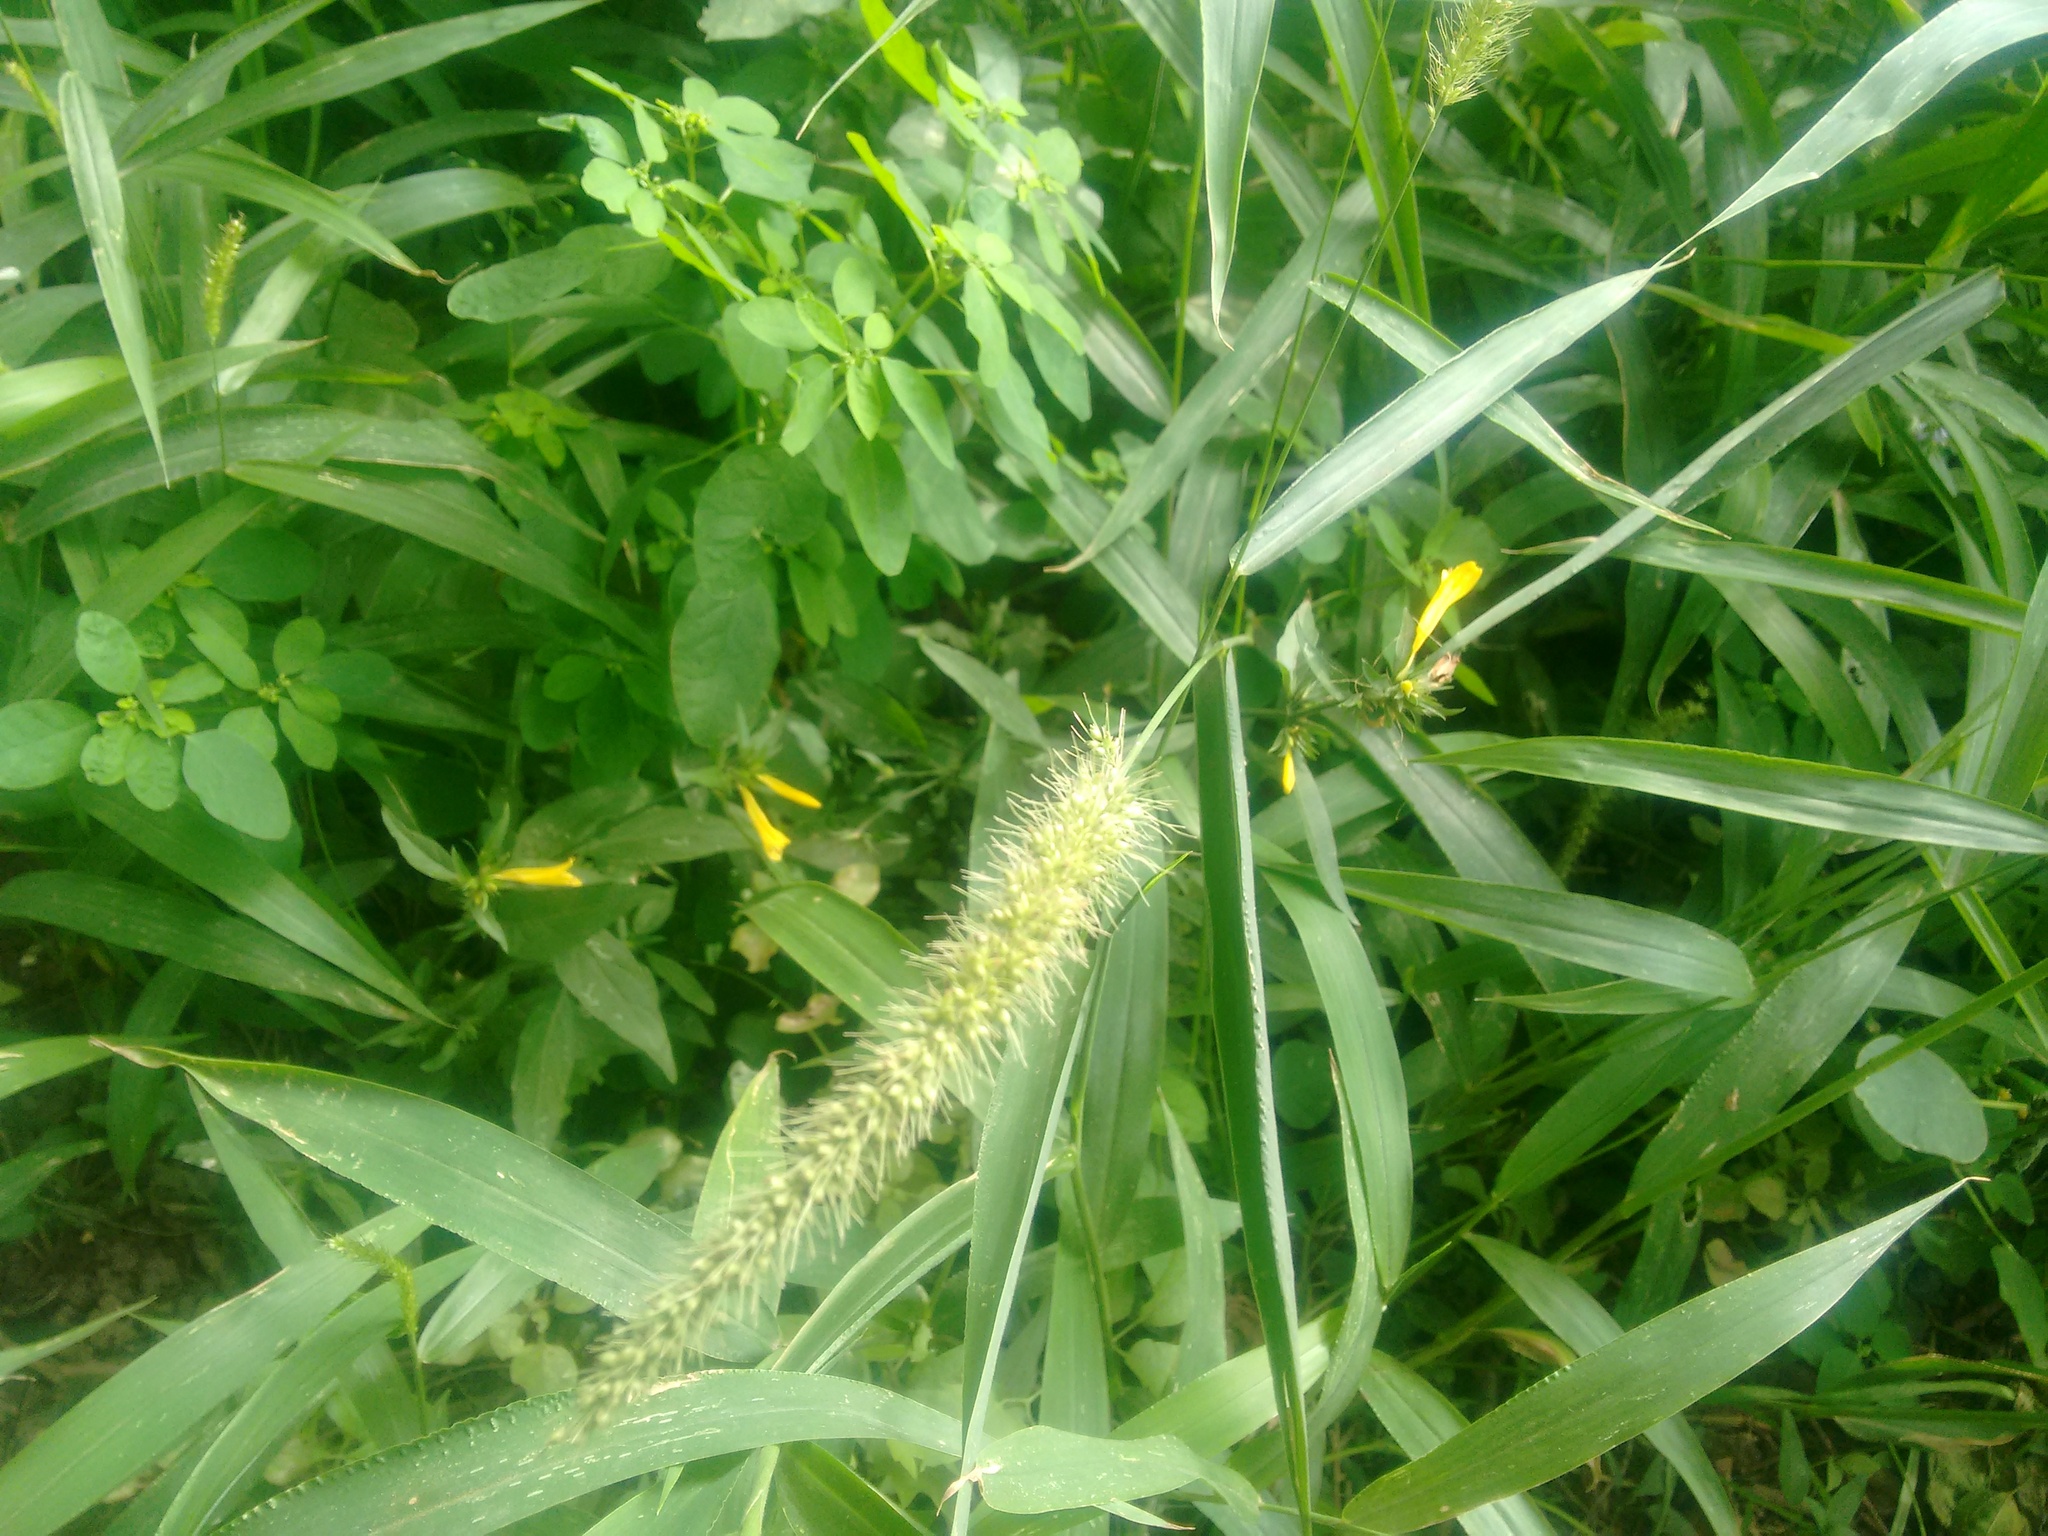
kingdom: Plantae
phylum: Tracheophyta
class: Magnoliopsida
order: Lamiales
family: Acanthaceae
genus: Dicliptera
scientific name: Dicliptera squarrosa
